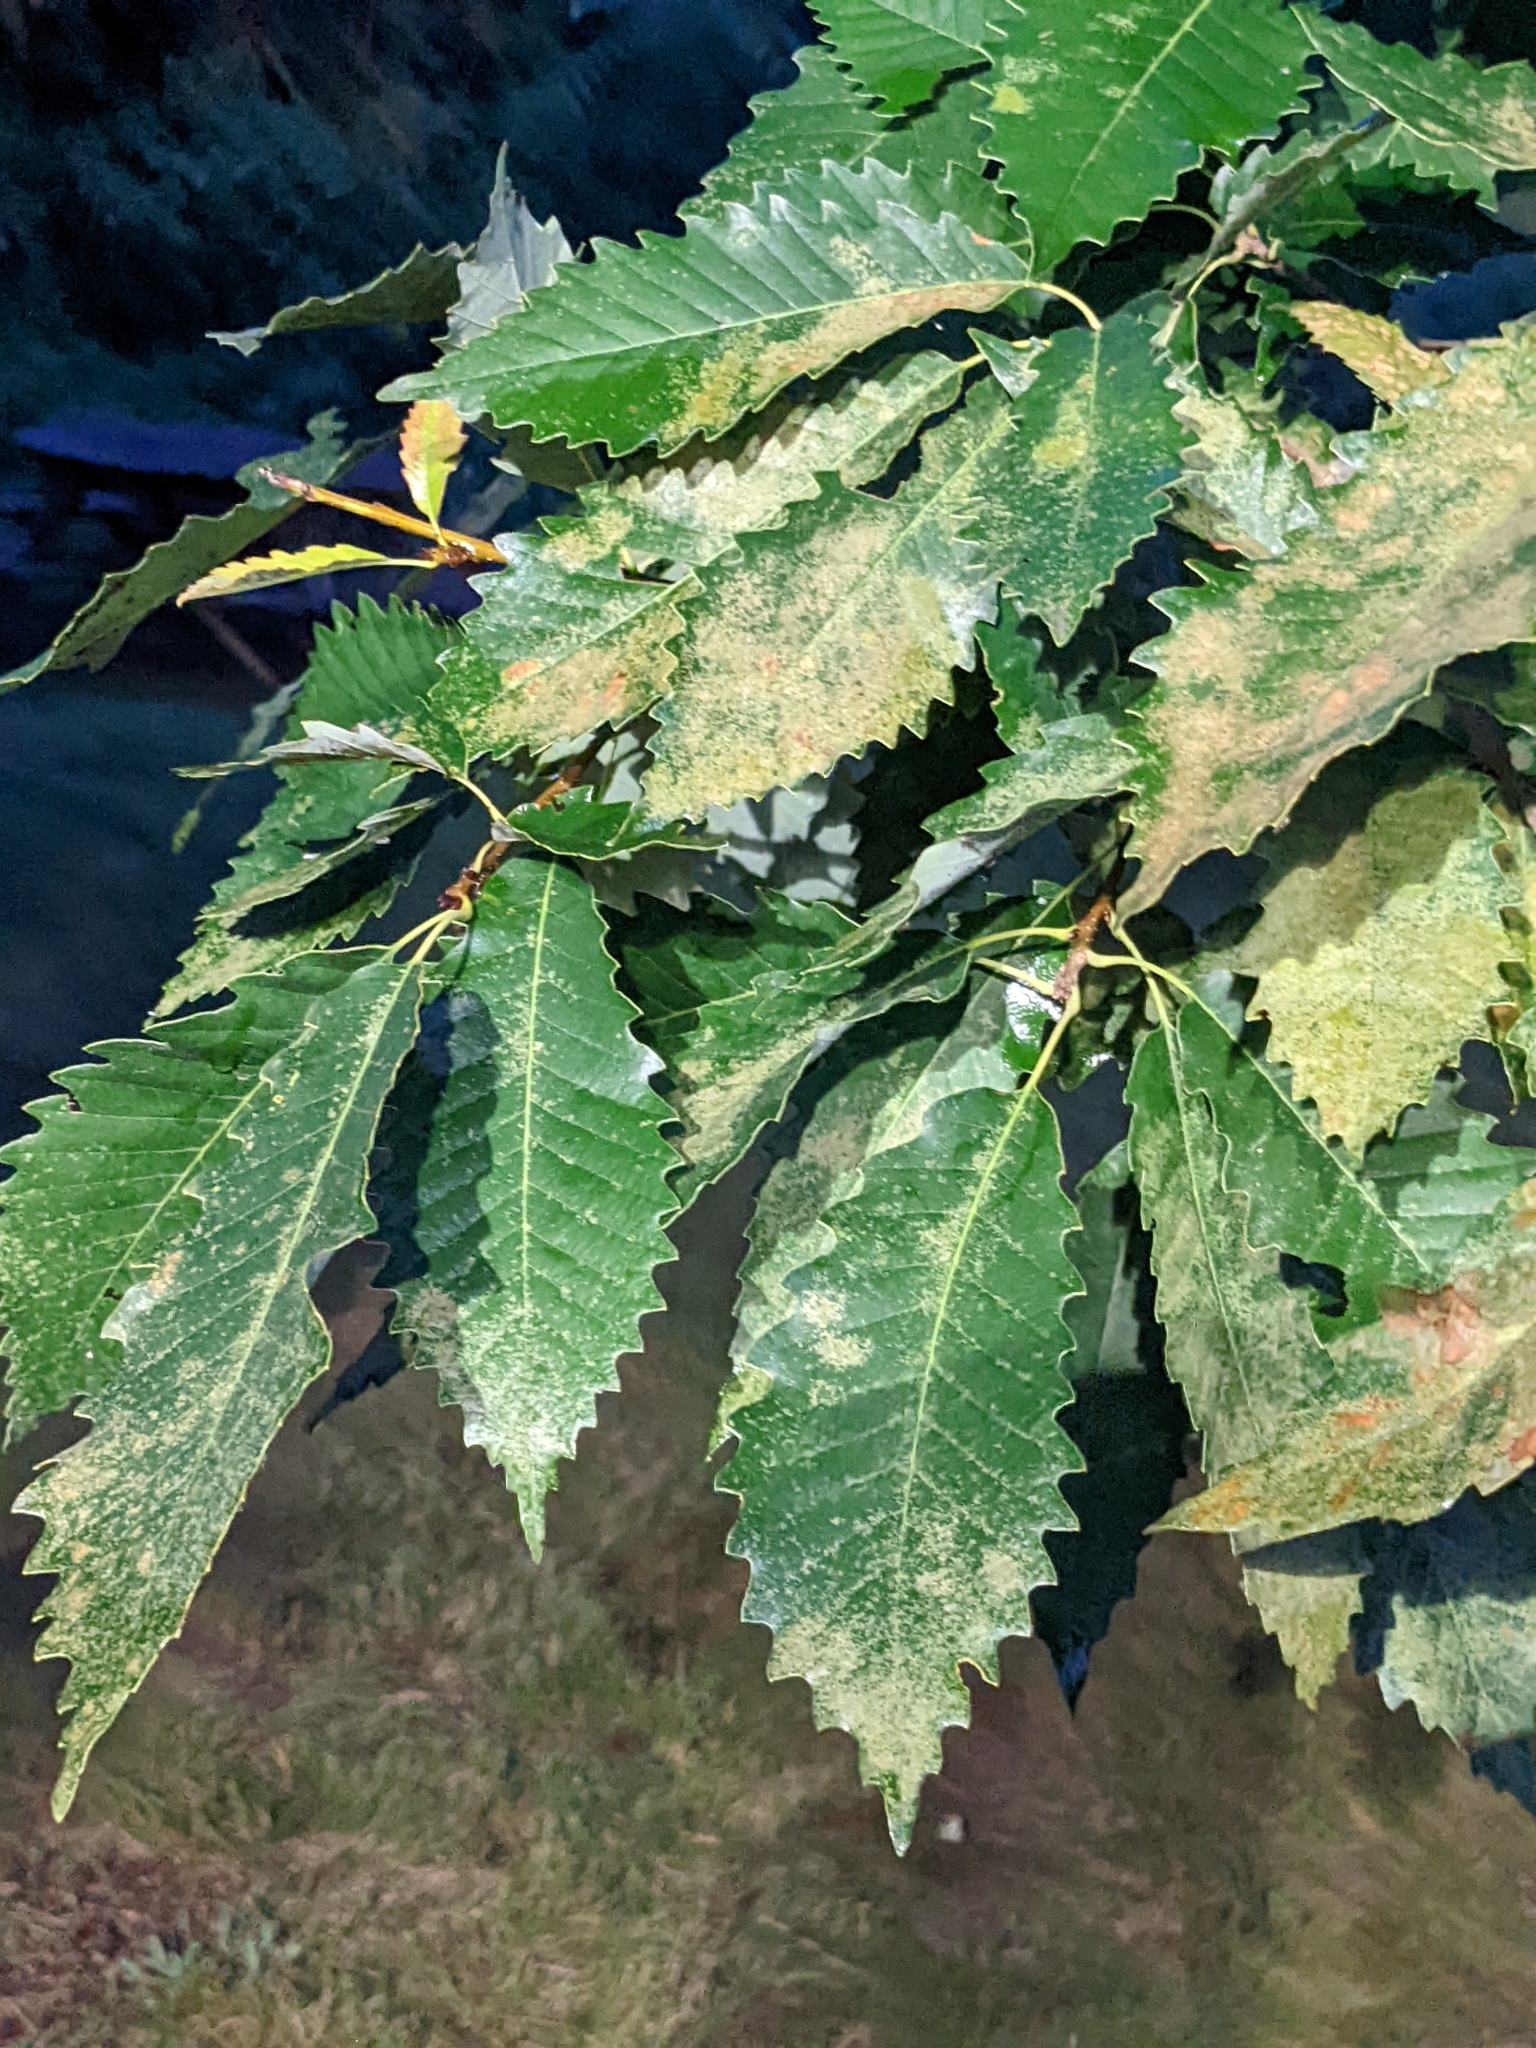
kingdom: Plantae
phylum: Tracheophyta
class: Magnoliopsida
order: Fagales
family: Fagaceae
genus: Quercus
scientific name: Quercus muehlenbergii
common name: Chinkapin oak
